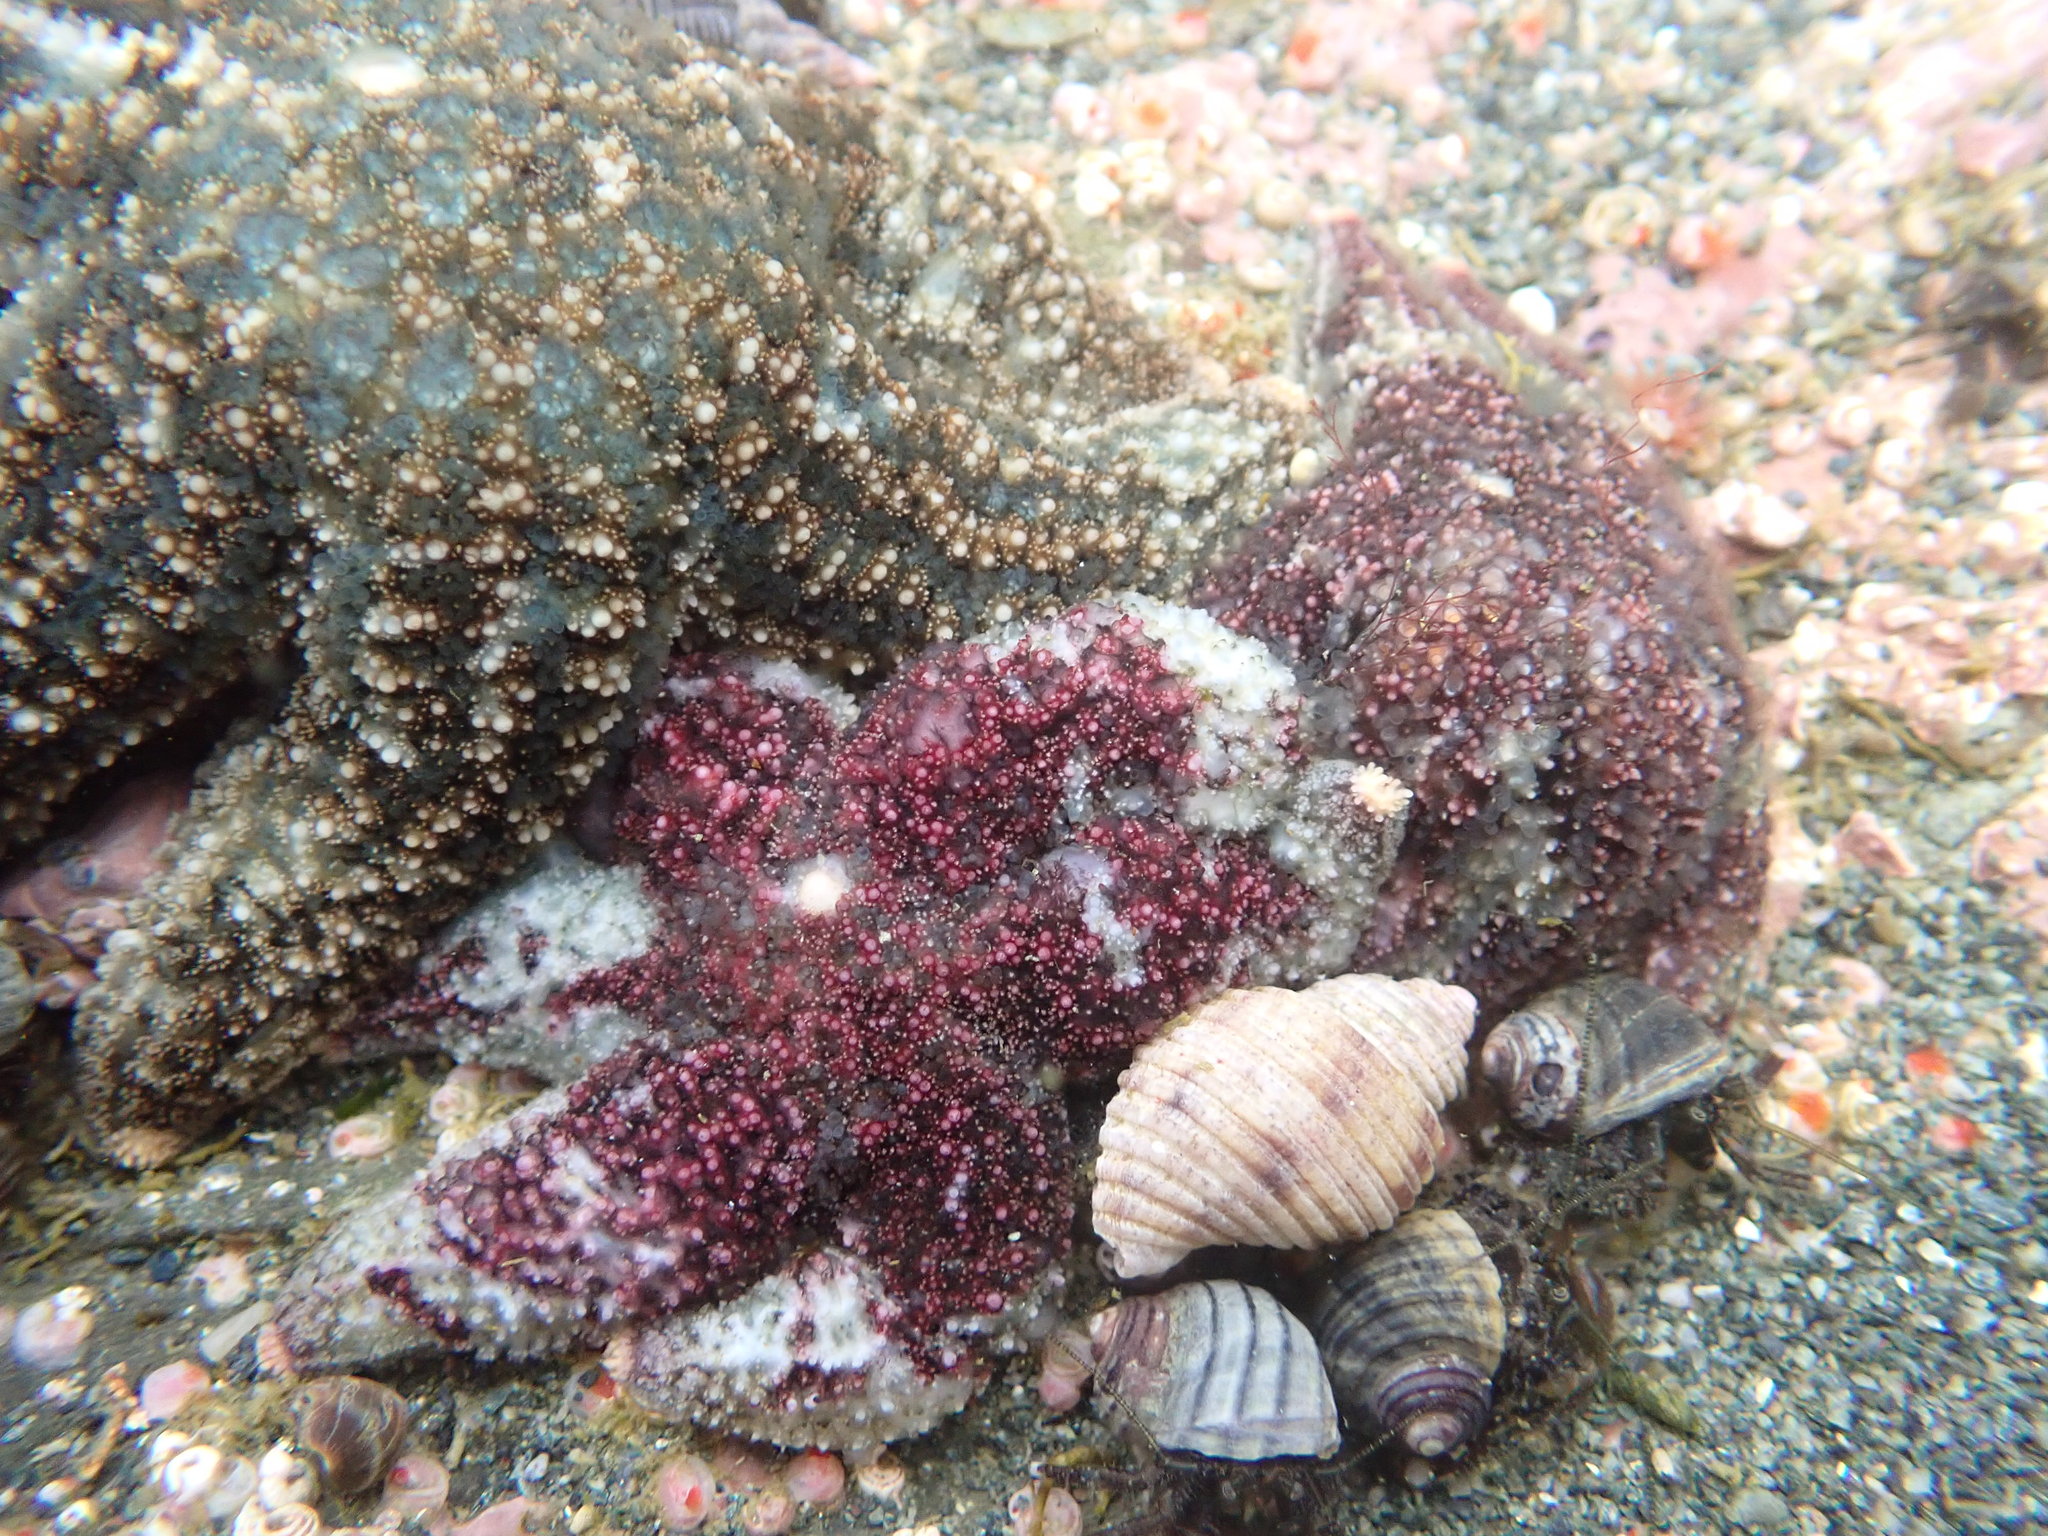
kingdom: Animalia
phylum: Echinodermata
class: Asteroidea
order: Forcipulatida
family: Asteriidae
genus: Leptasterias
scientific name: Leptasterias hexactis
